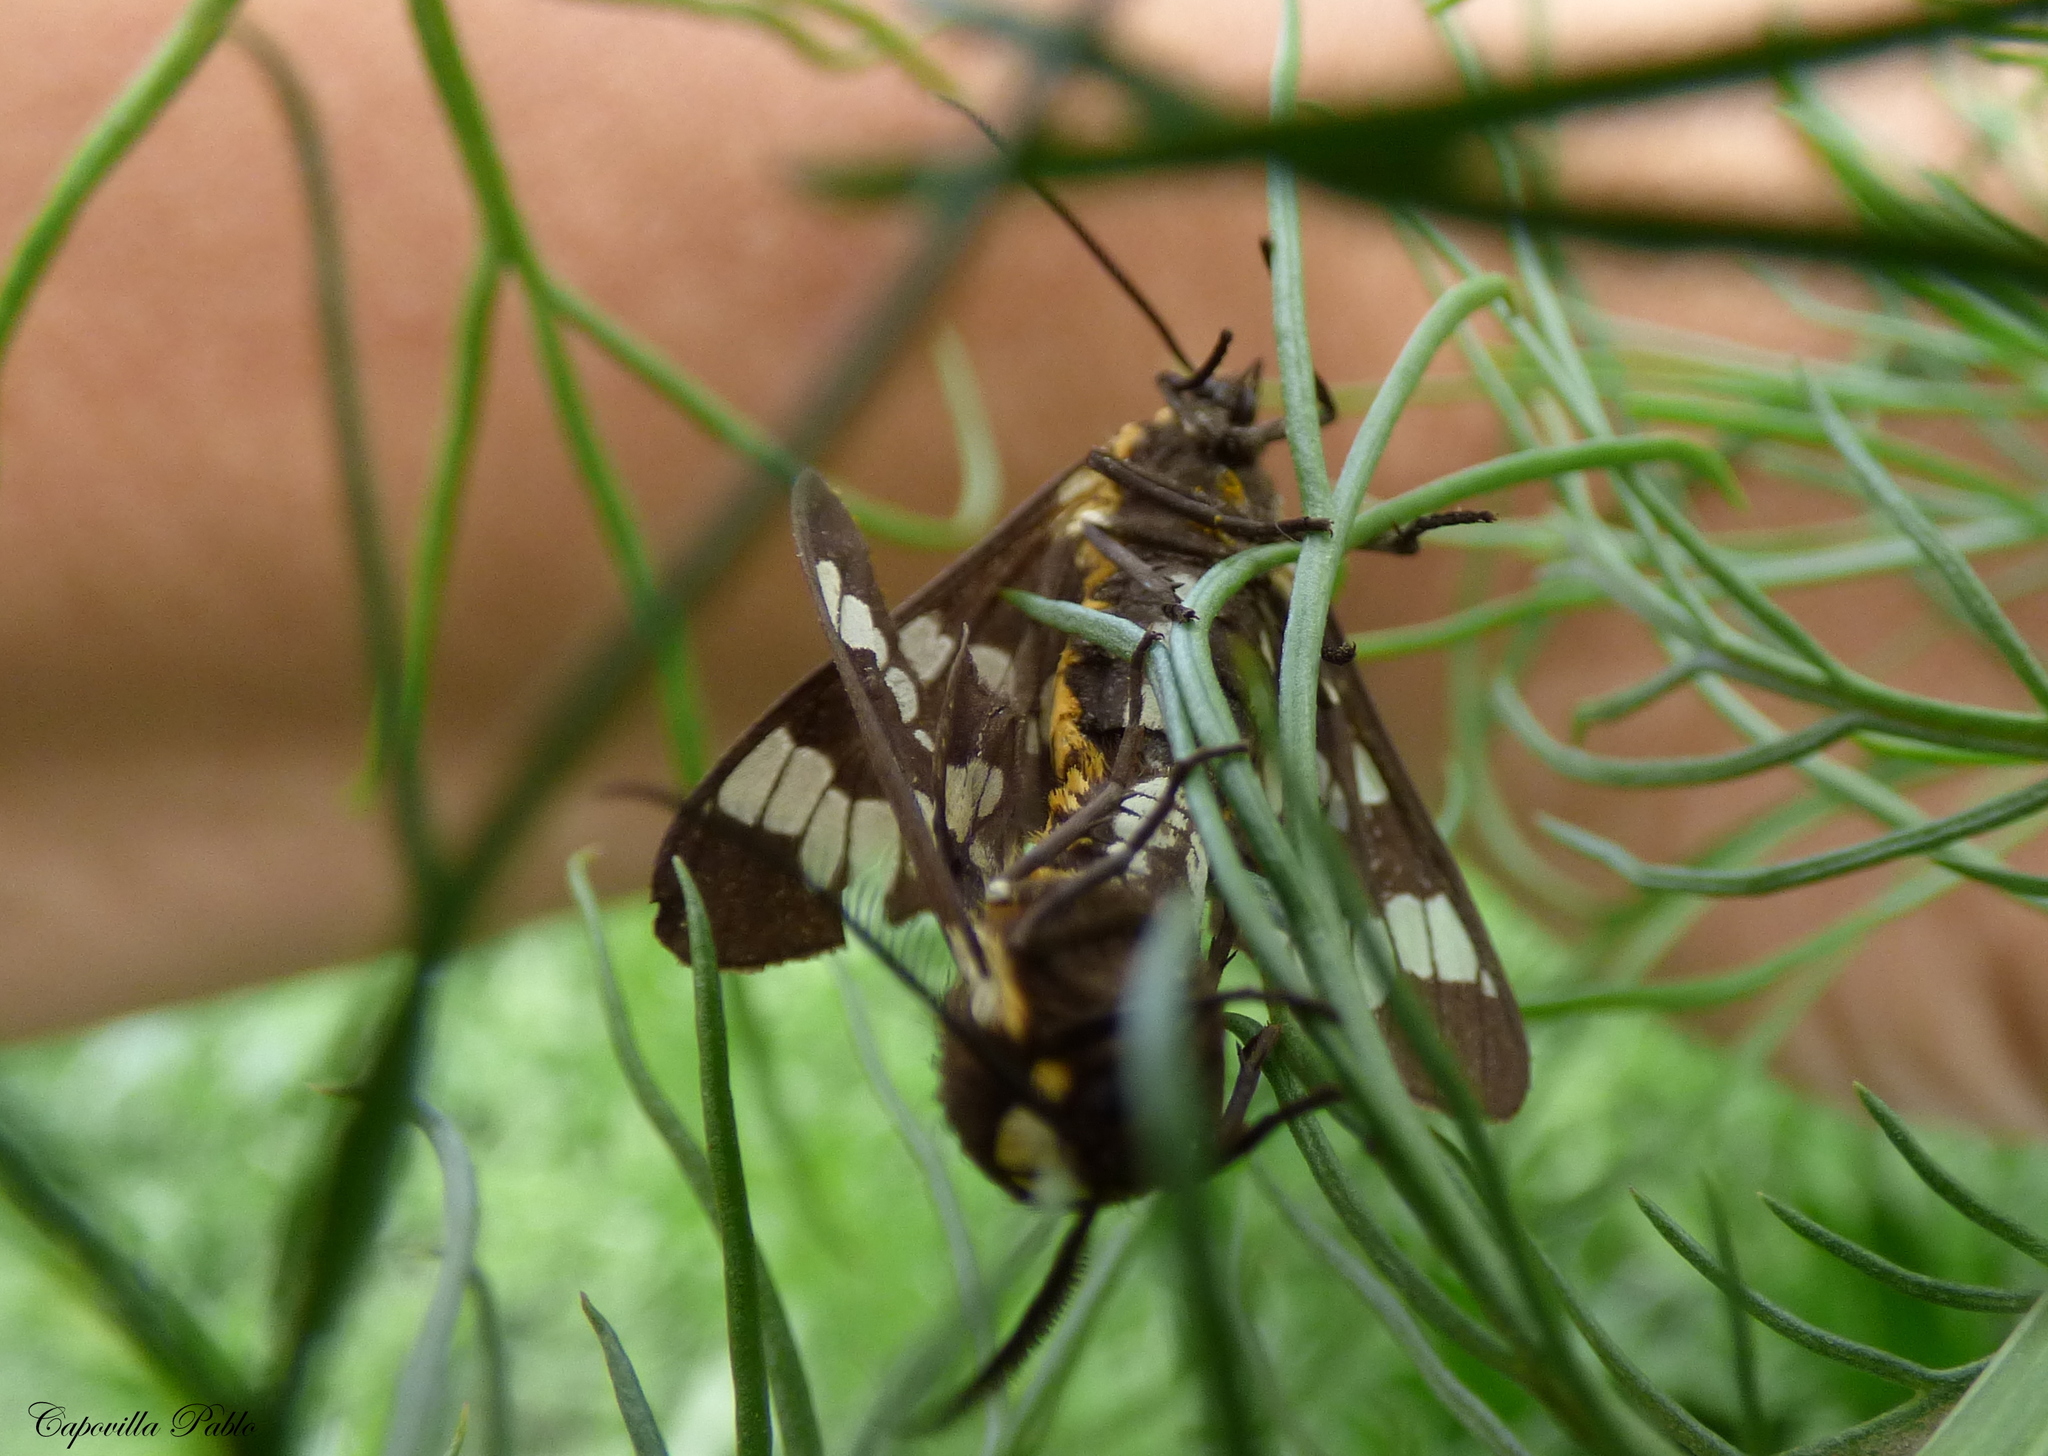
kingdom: Animalia
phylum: Arthropoda
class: Insecta
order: Lepidoptera
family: Erebidae
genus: Eurata
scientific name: Eurata
